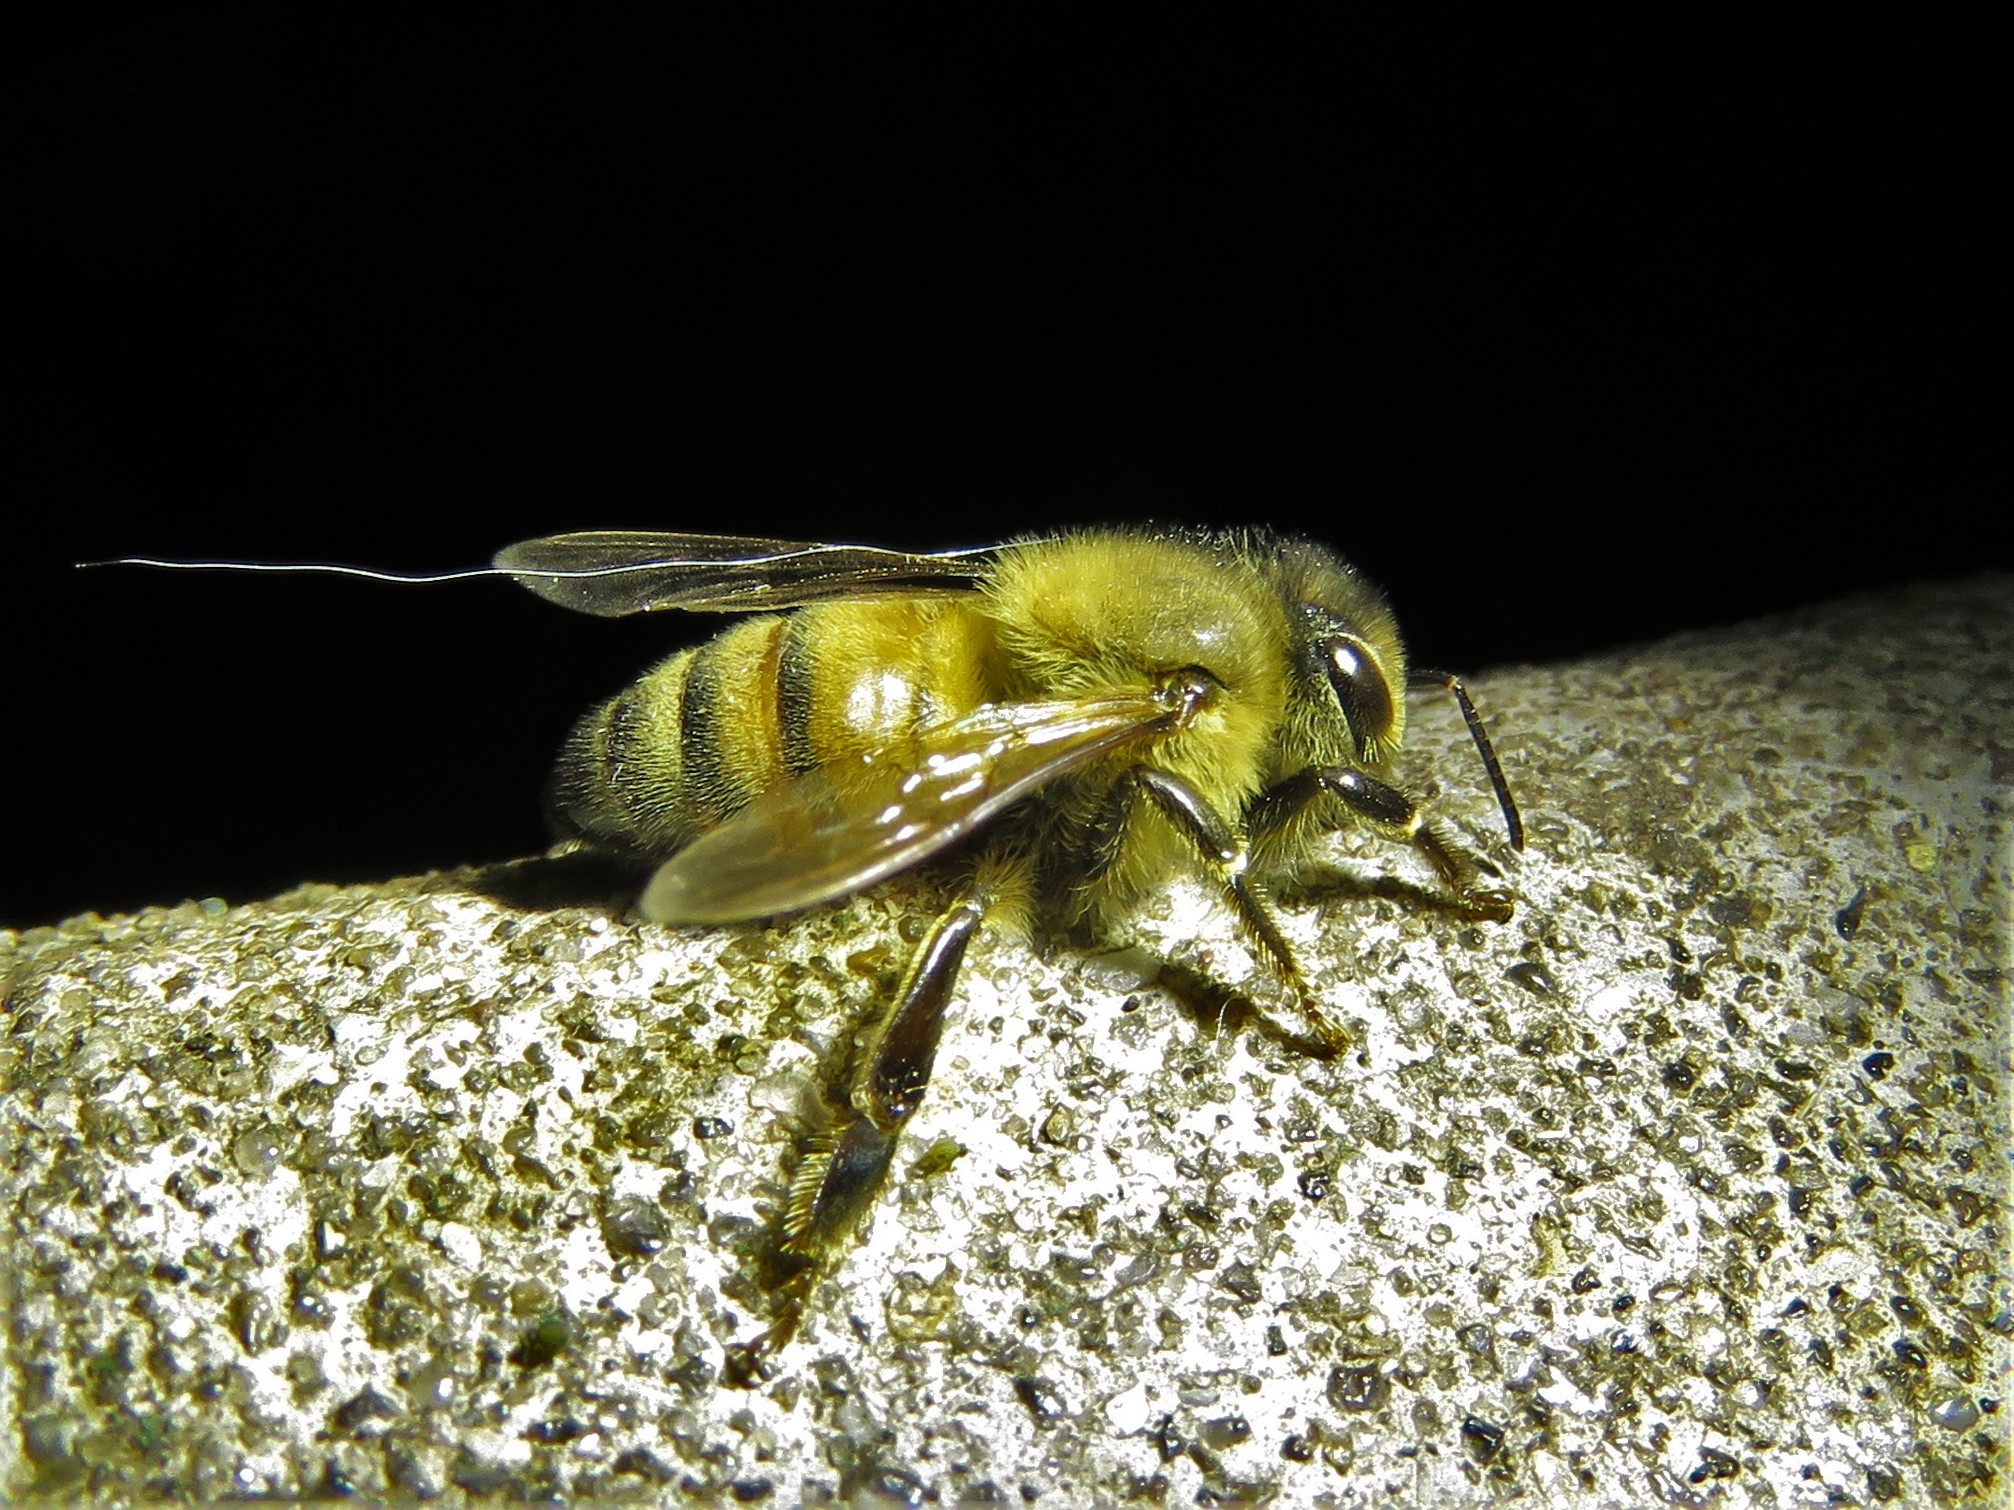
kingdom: Animalia
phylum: Arthropoda
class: Insecta
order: Hymenoptera
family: Apidae
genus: Apis
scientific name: Apis mellifera
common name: Honey bee
